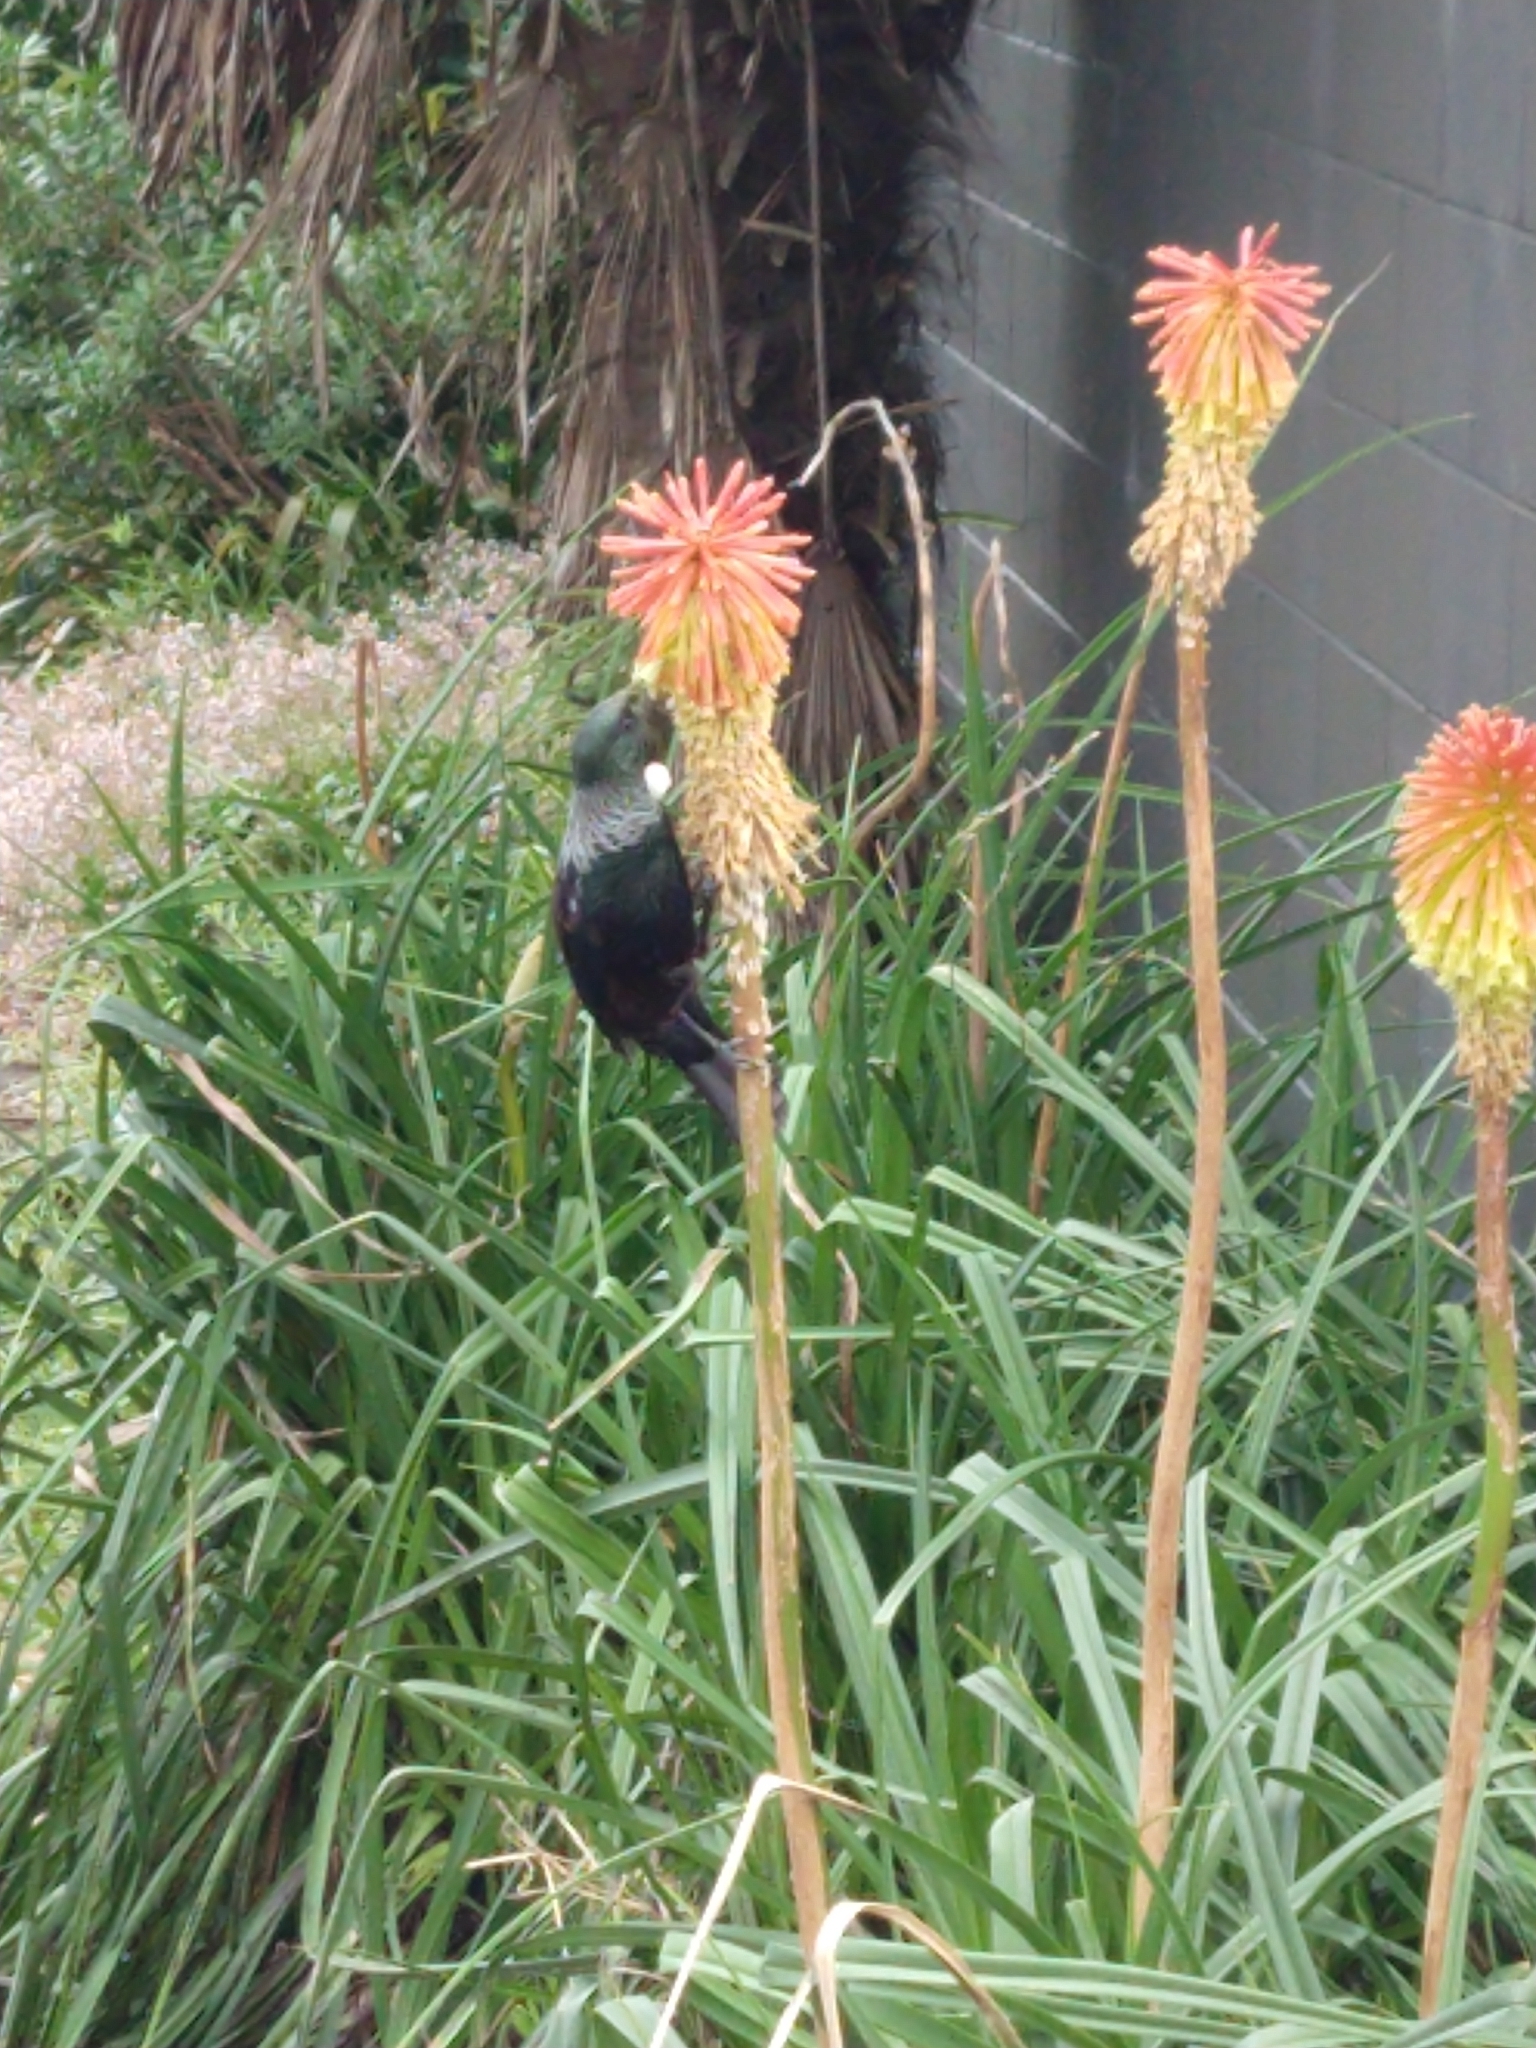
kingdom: Animalia
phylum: Chordata
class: Aves
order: Passeriformes
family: Meliphagidae
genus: Prosthemadera
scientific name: Prosthemadera novaeseelandiae
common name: Tui
